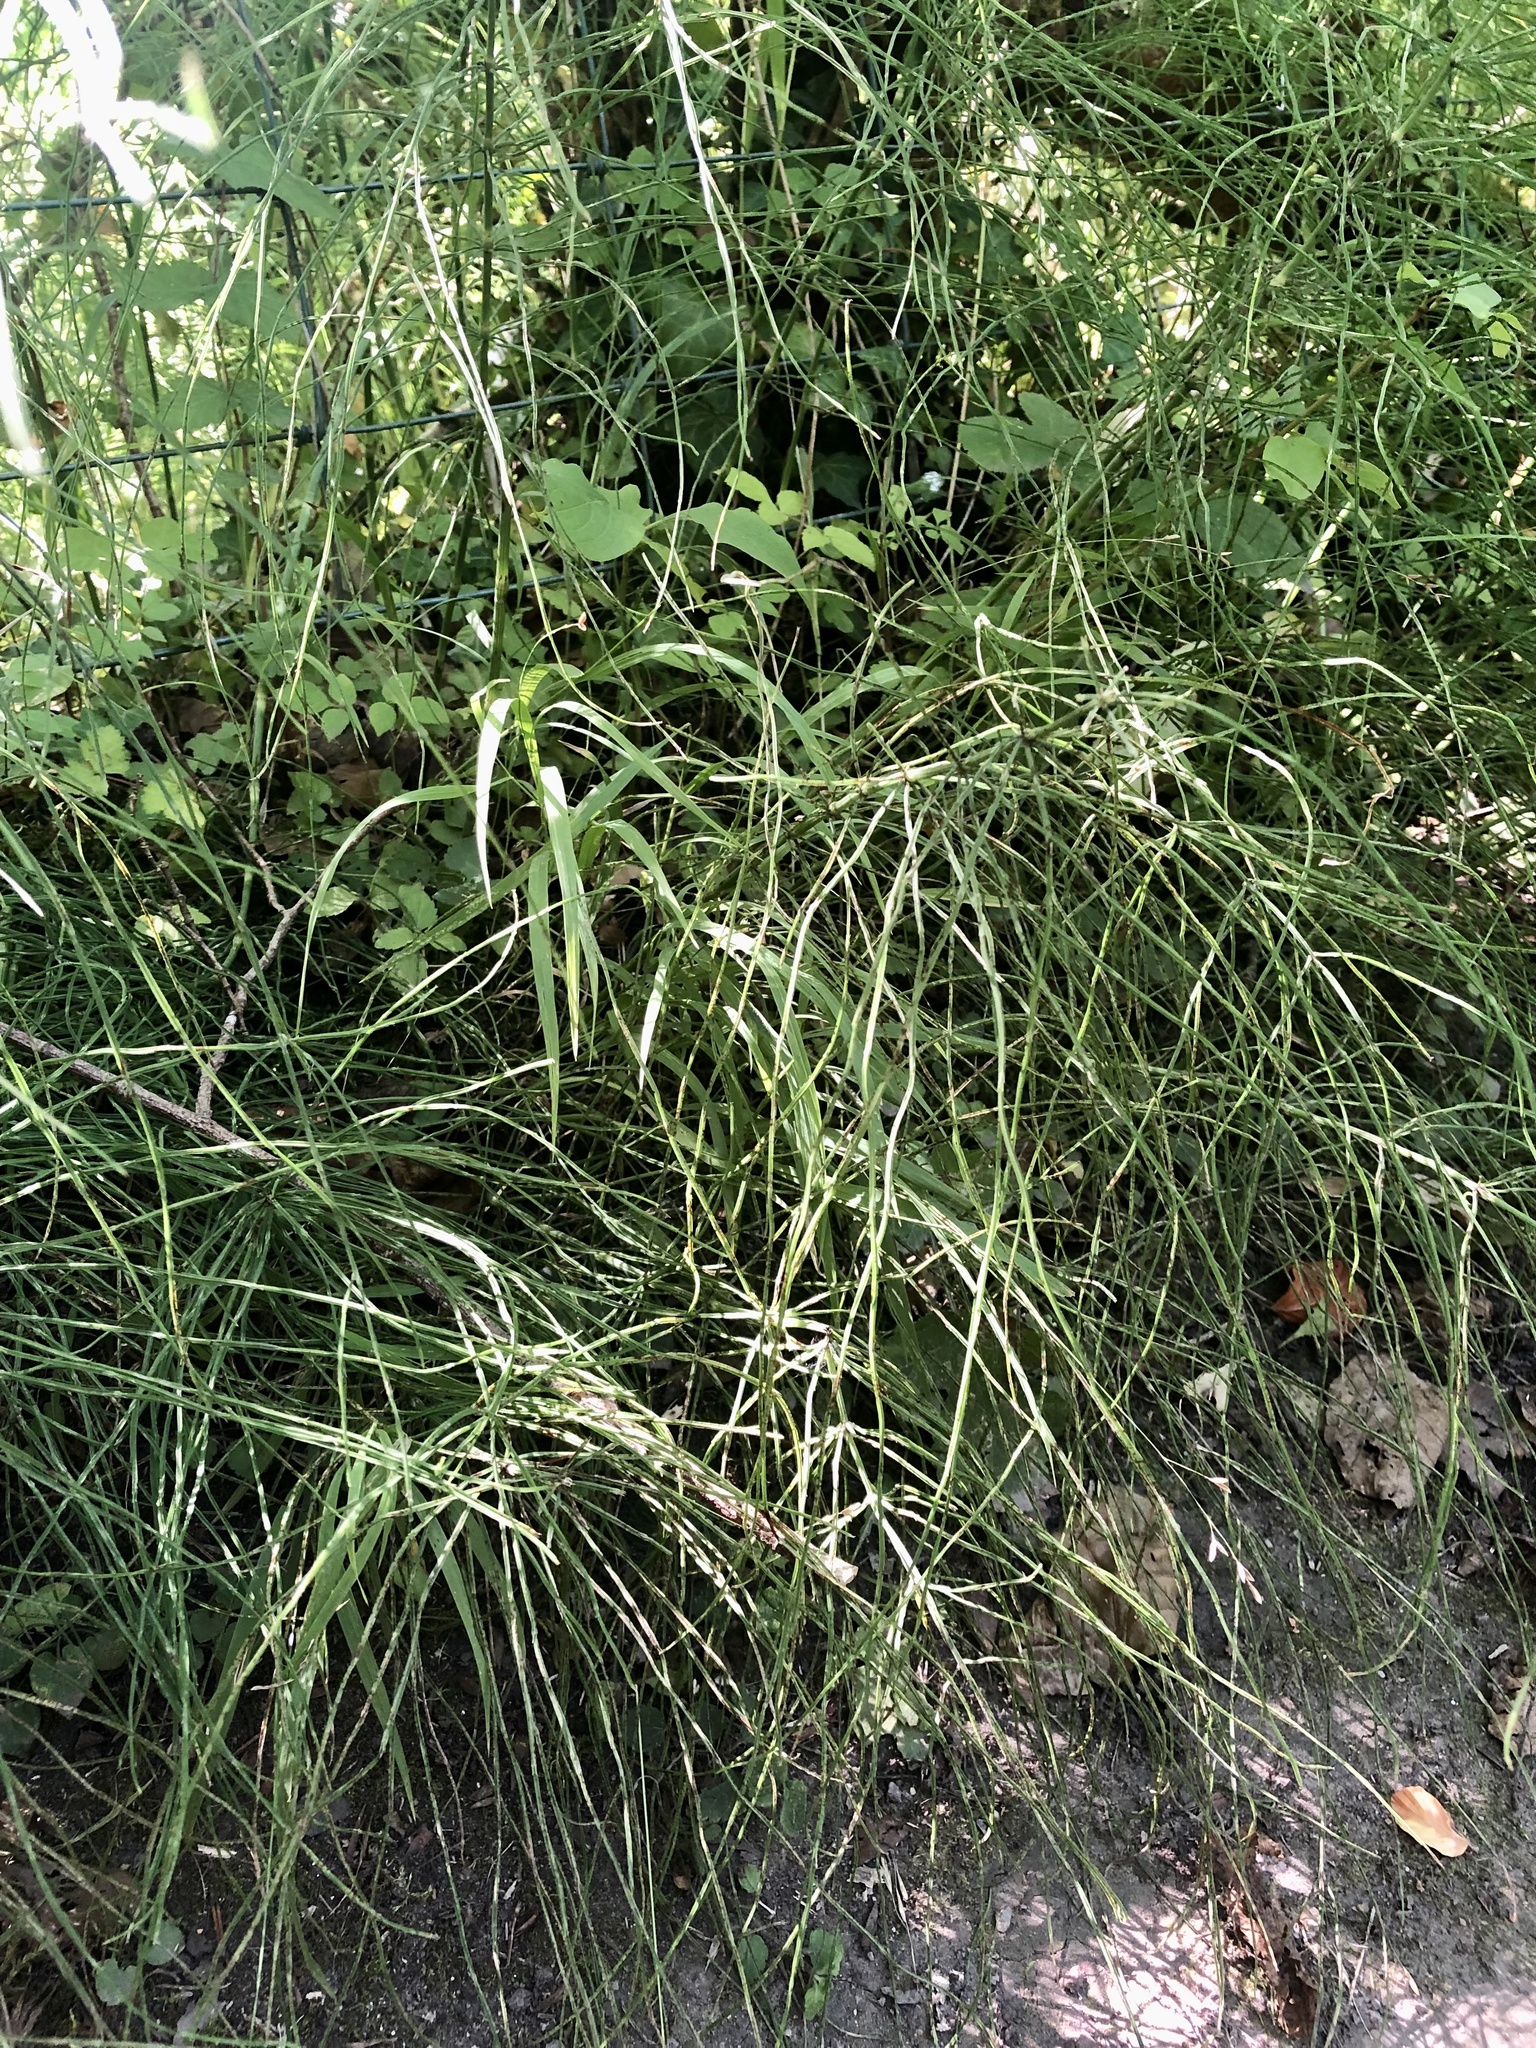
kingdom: Plantae
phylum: Tracheophyta
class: Polypodiopsida
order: Equisetales
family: Equisetaceae
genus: Equisetum
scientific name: Equisetum arvense
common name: Field horsetail
